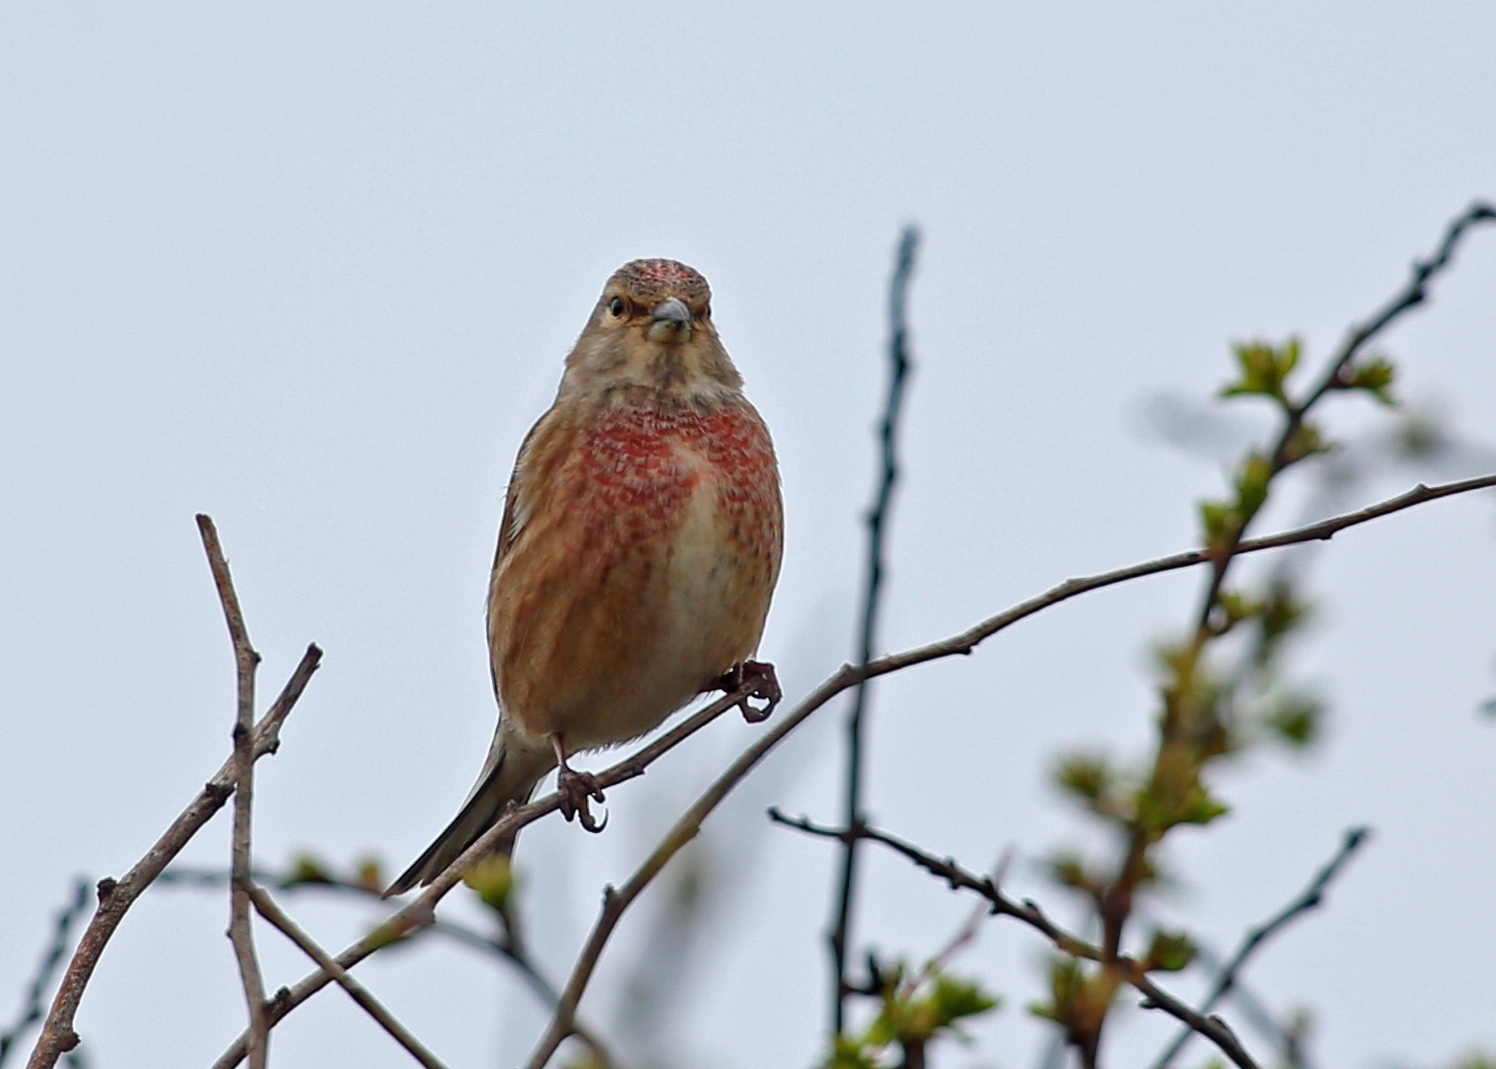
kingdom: Animalia
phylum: Chordata
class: Aves
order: Passeriformes
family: Fringillidae
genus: Linaria
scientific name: Linaria cannabina
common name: Common linnet
